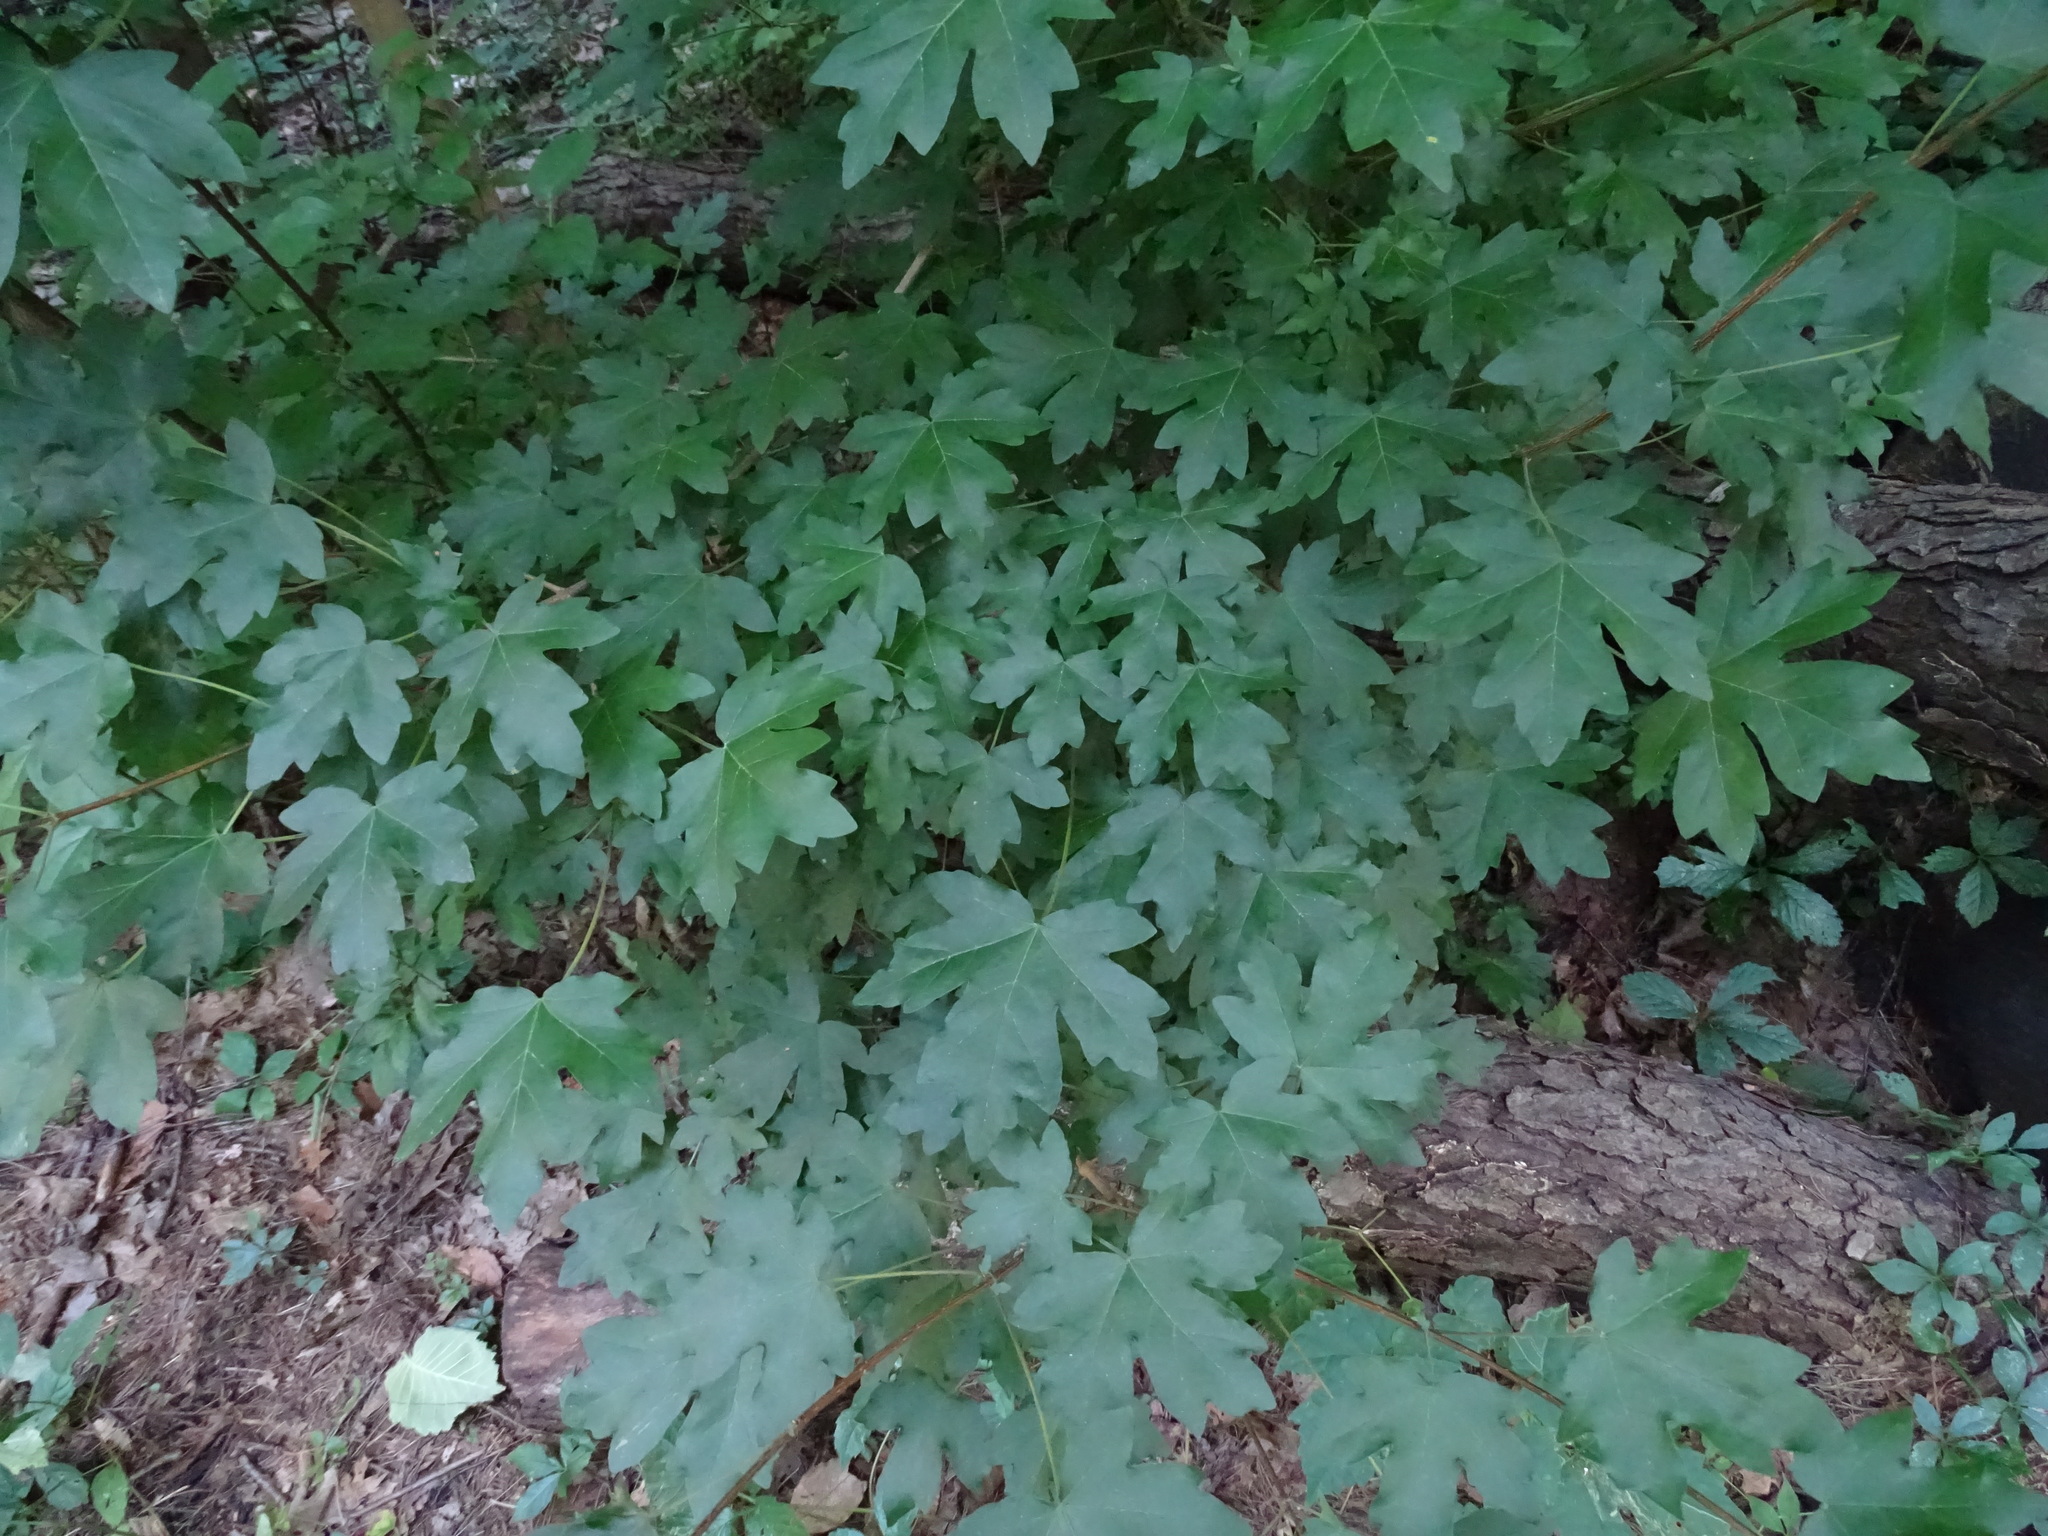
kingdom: Plantae
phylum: Tracheophyta
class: Magnoliopsida
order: Sapindales
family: Sapindaceae
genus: Acer
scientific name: Acer campestre
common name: Field maple
